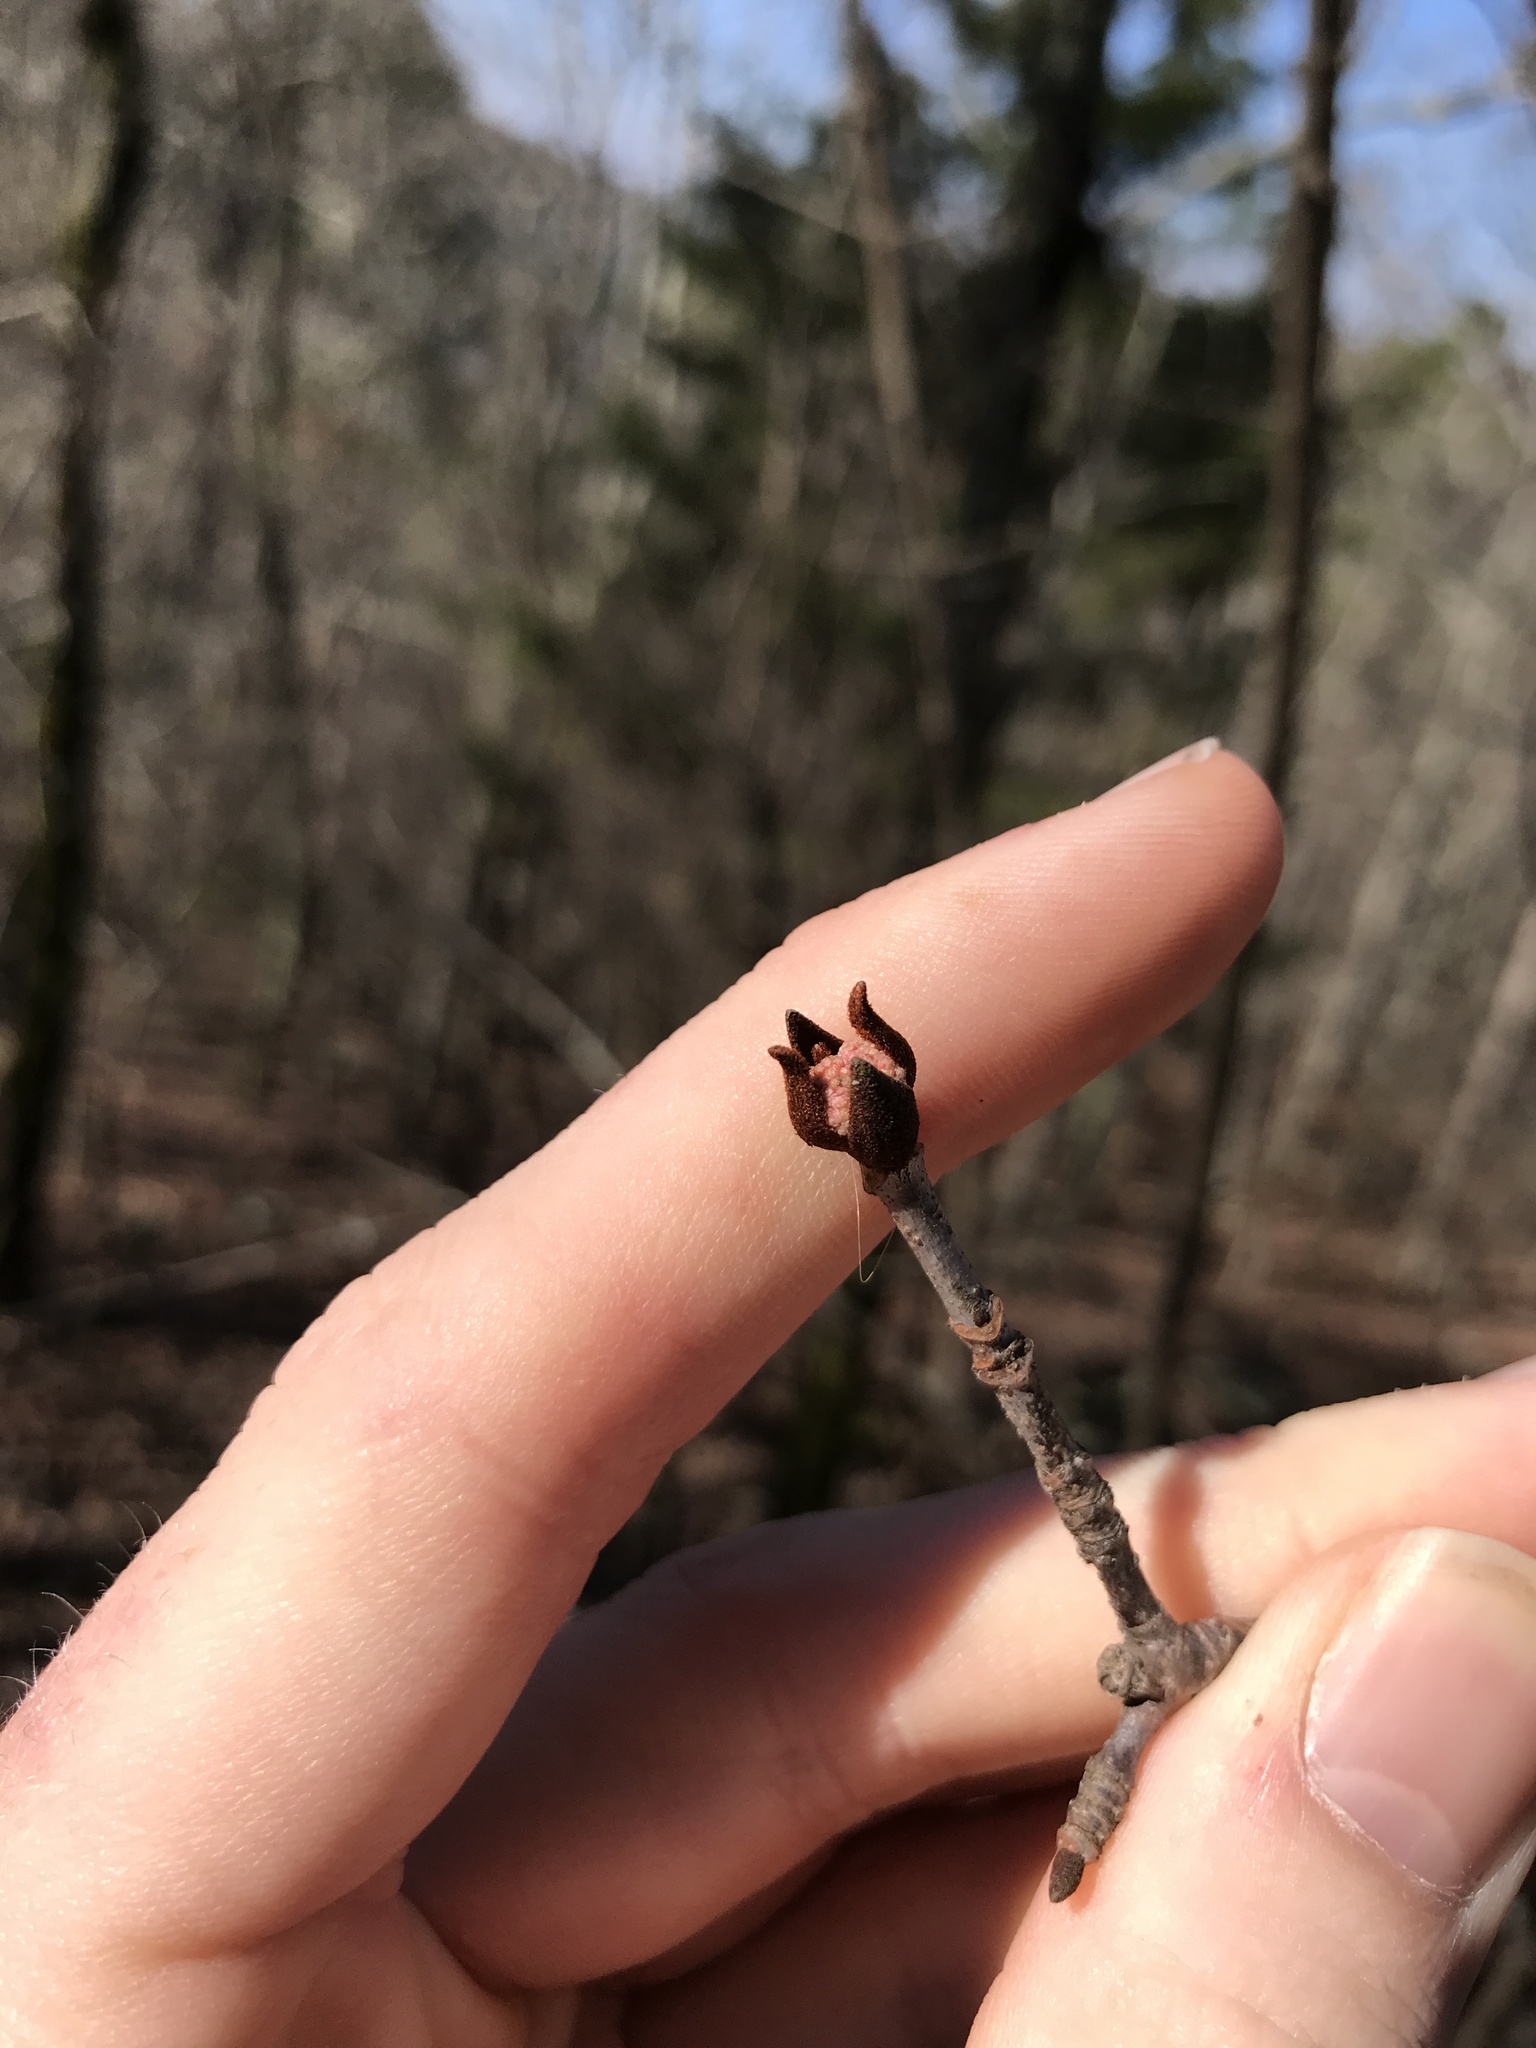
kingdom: Plantae
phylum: Tracheophyta
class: Magnoliopsida
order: Dipsacales
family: Viburnaceae
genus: Viburnum
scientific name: Viburnum rufidulum
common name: Blue haw
